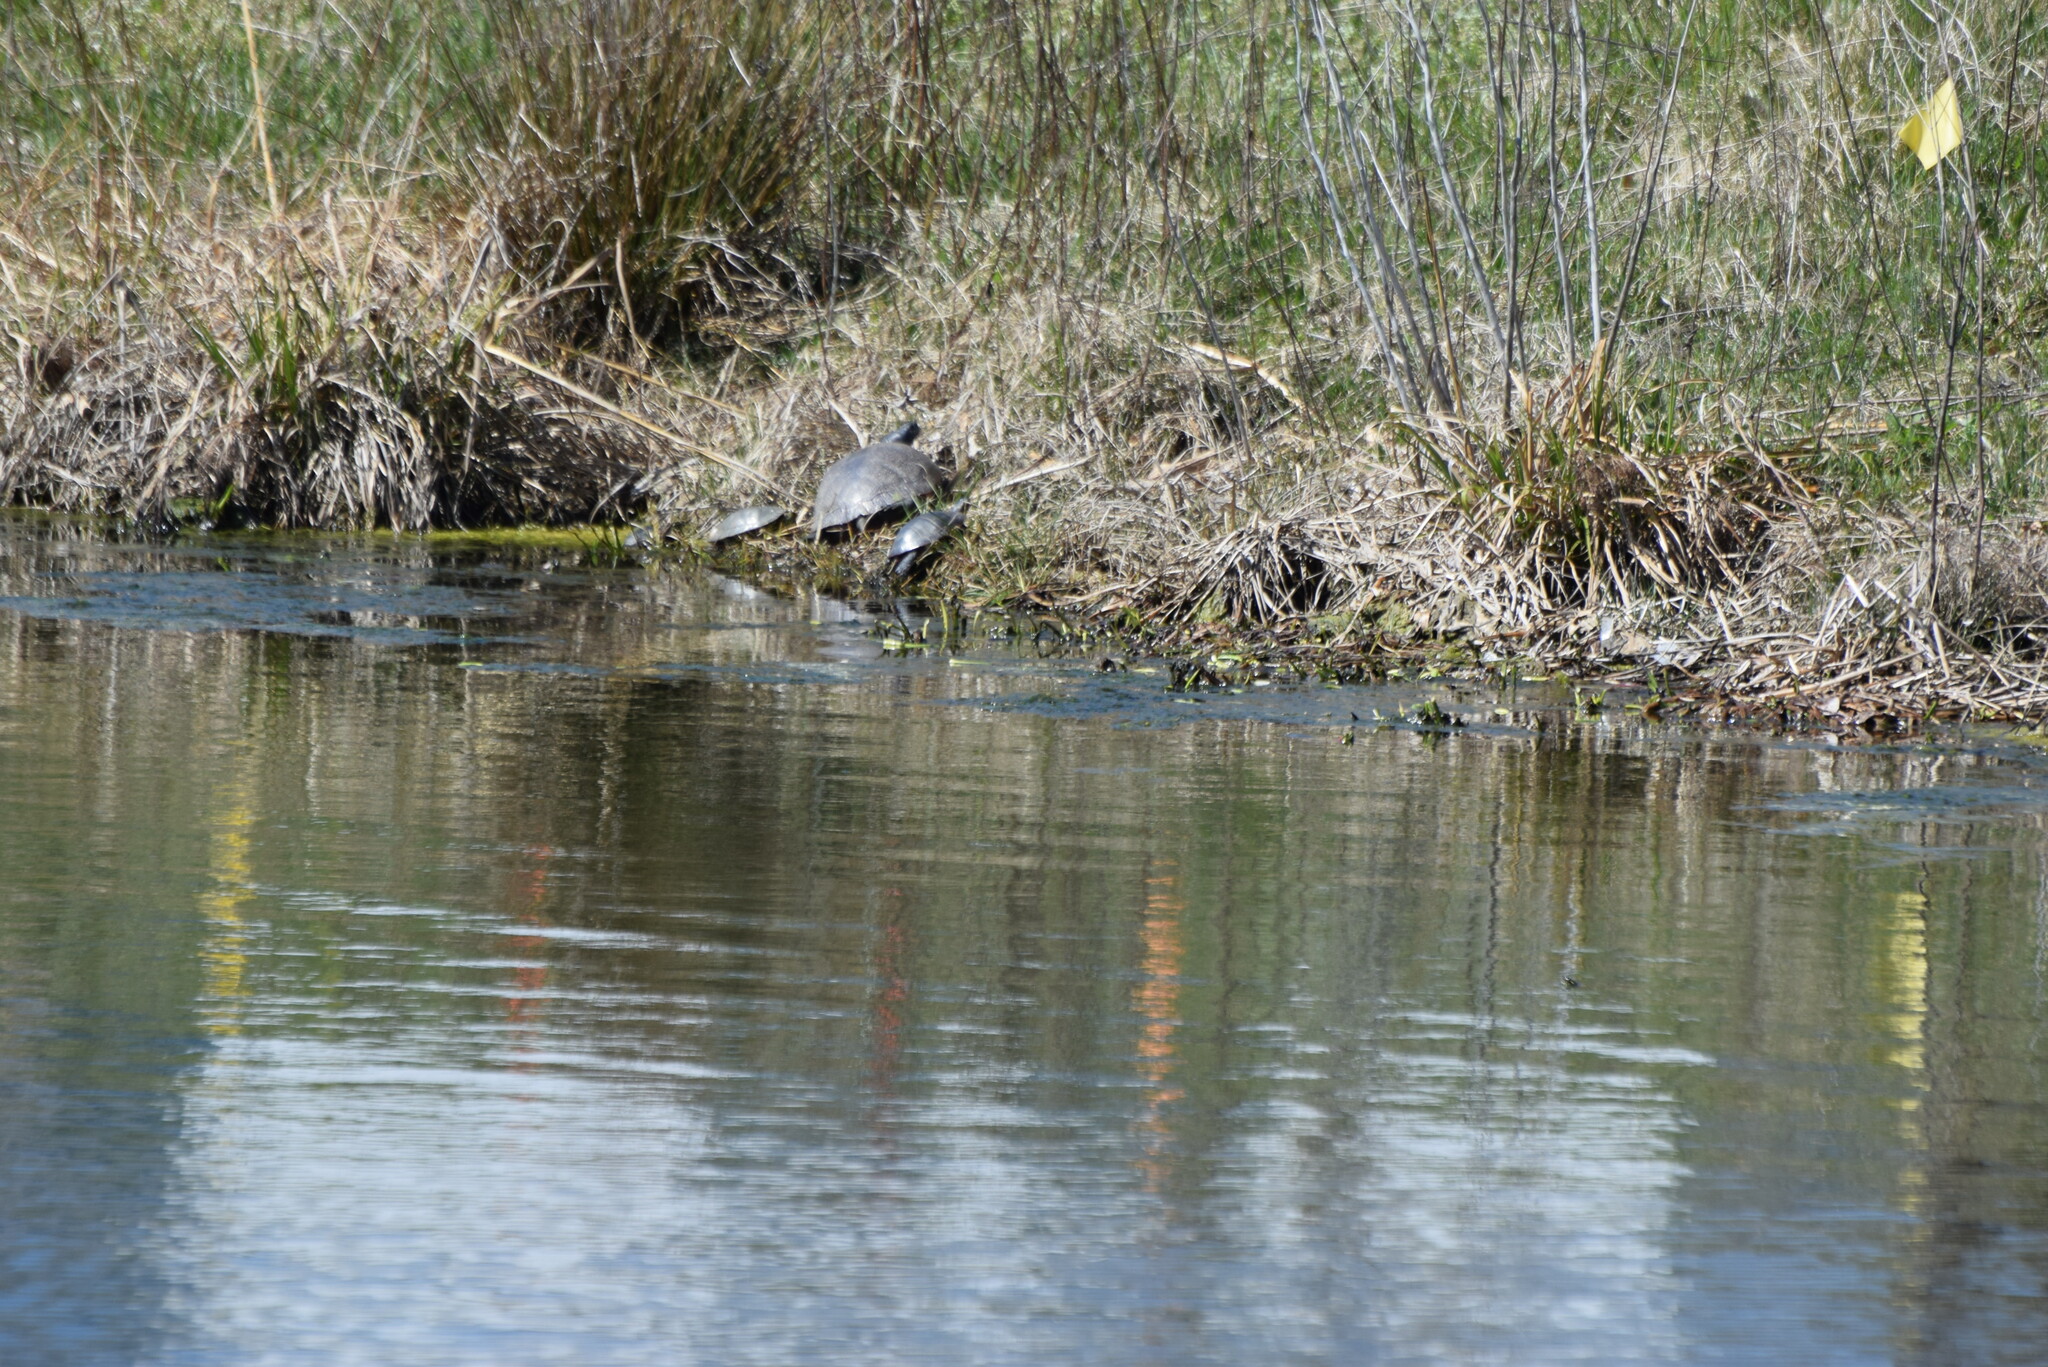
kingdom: Animalia
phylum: Chordata
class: Testudines
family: Emydidae
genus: Pseudemys
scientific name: Pseudemys rubriventris
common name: American red-bellied turtle
